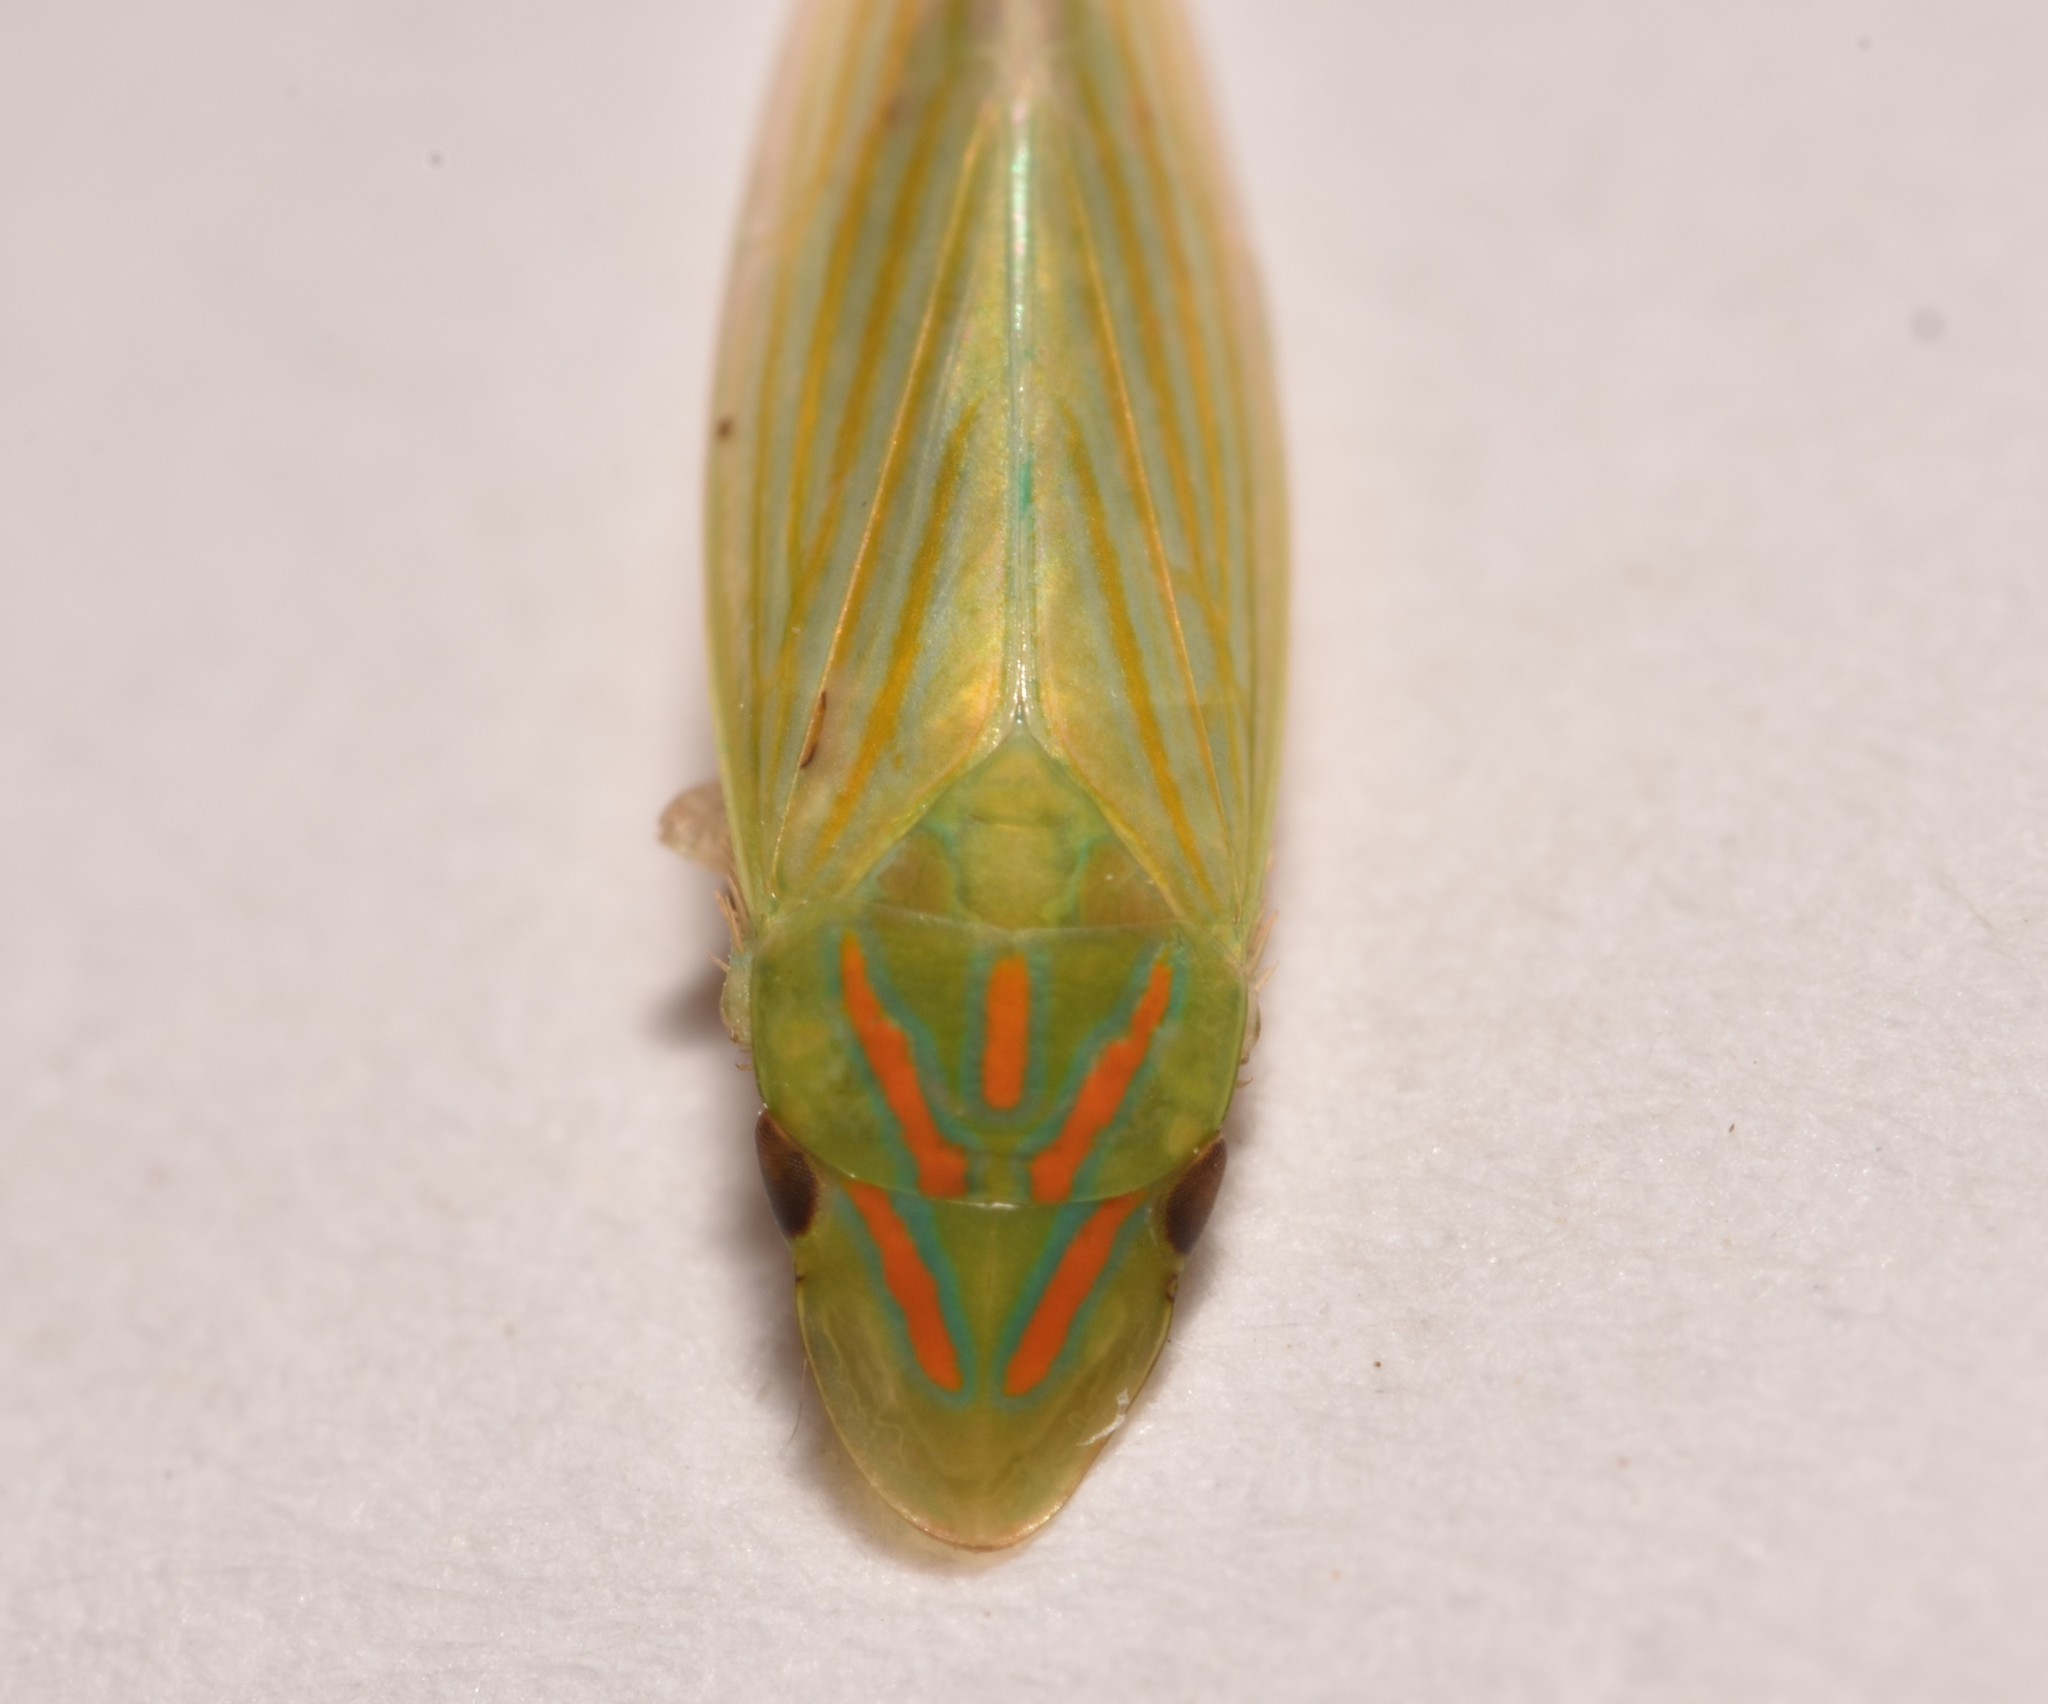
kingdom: Animalia
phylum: Arthropoda
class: Insecta
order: Hemiptera
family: Cicadellidae
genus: Spangbergiella
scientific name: Spangbergiella vulnerata
